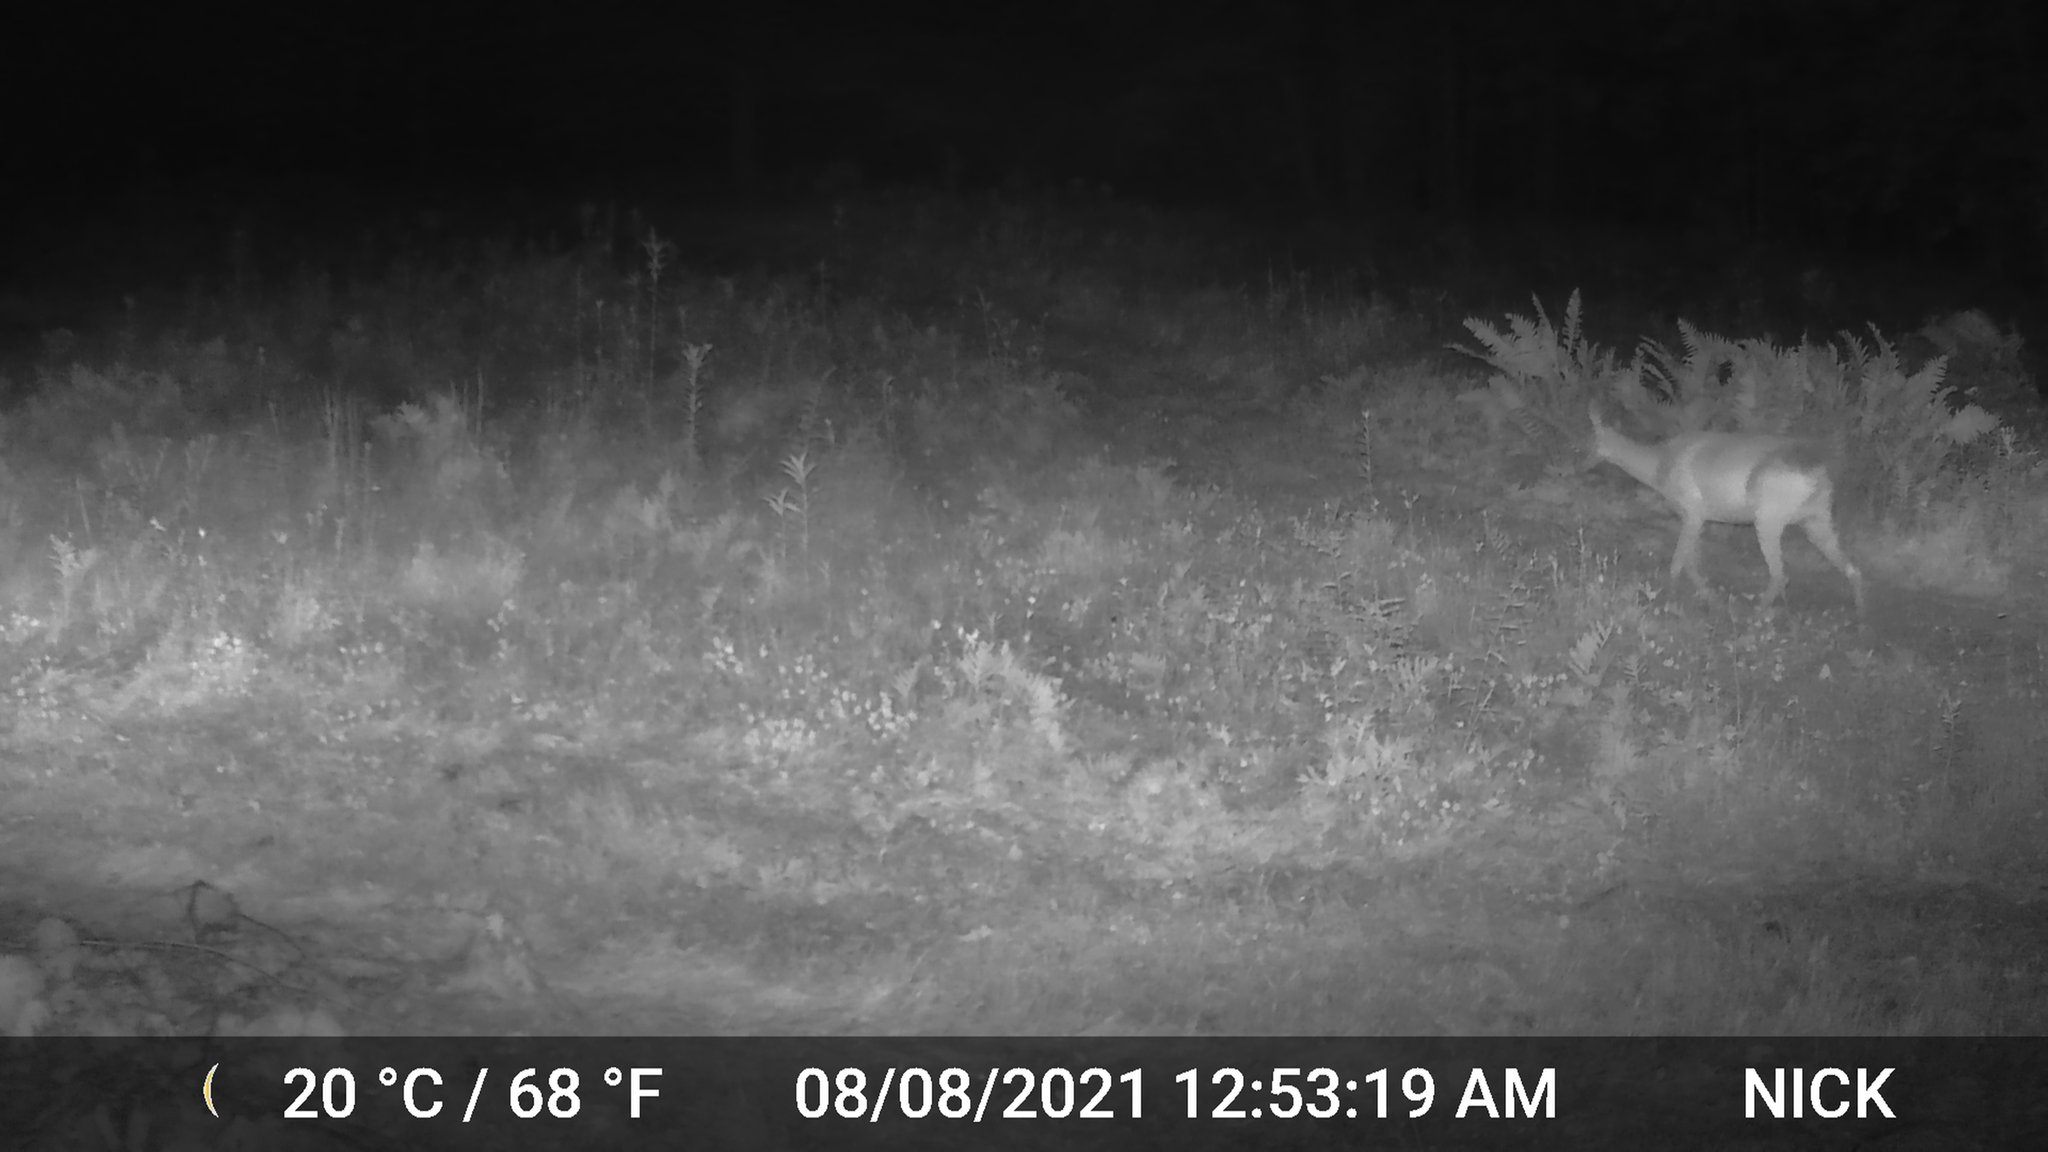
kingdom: Animalia
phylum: Chordata
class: Mammalia
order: Artiodactyla
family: Cervidae
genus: Odocoileus
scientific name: Odocoileus virginianus
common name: White-tailed deer
